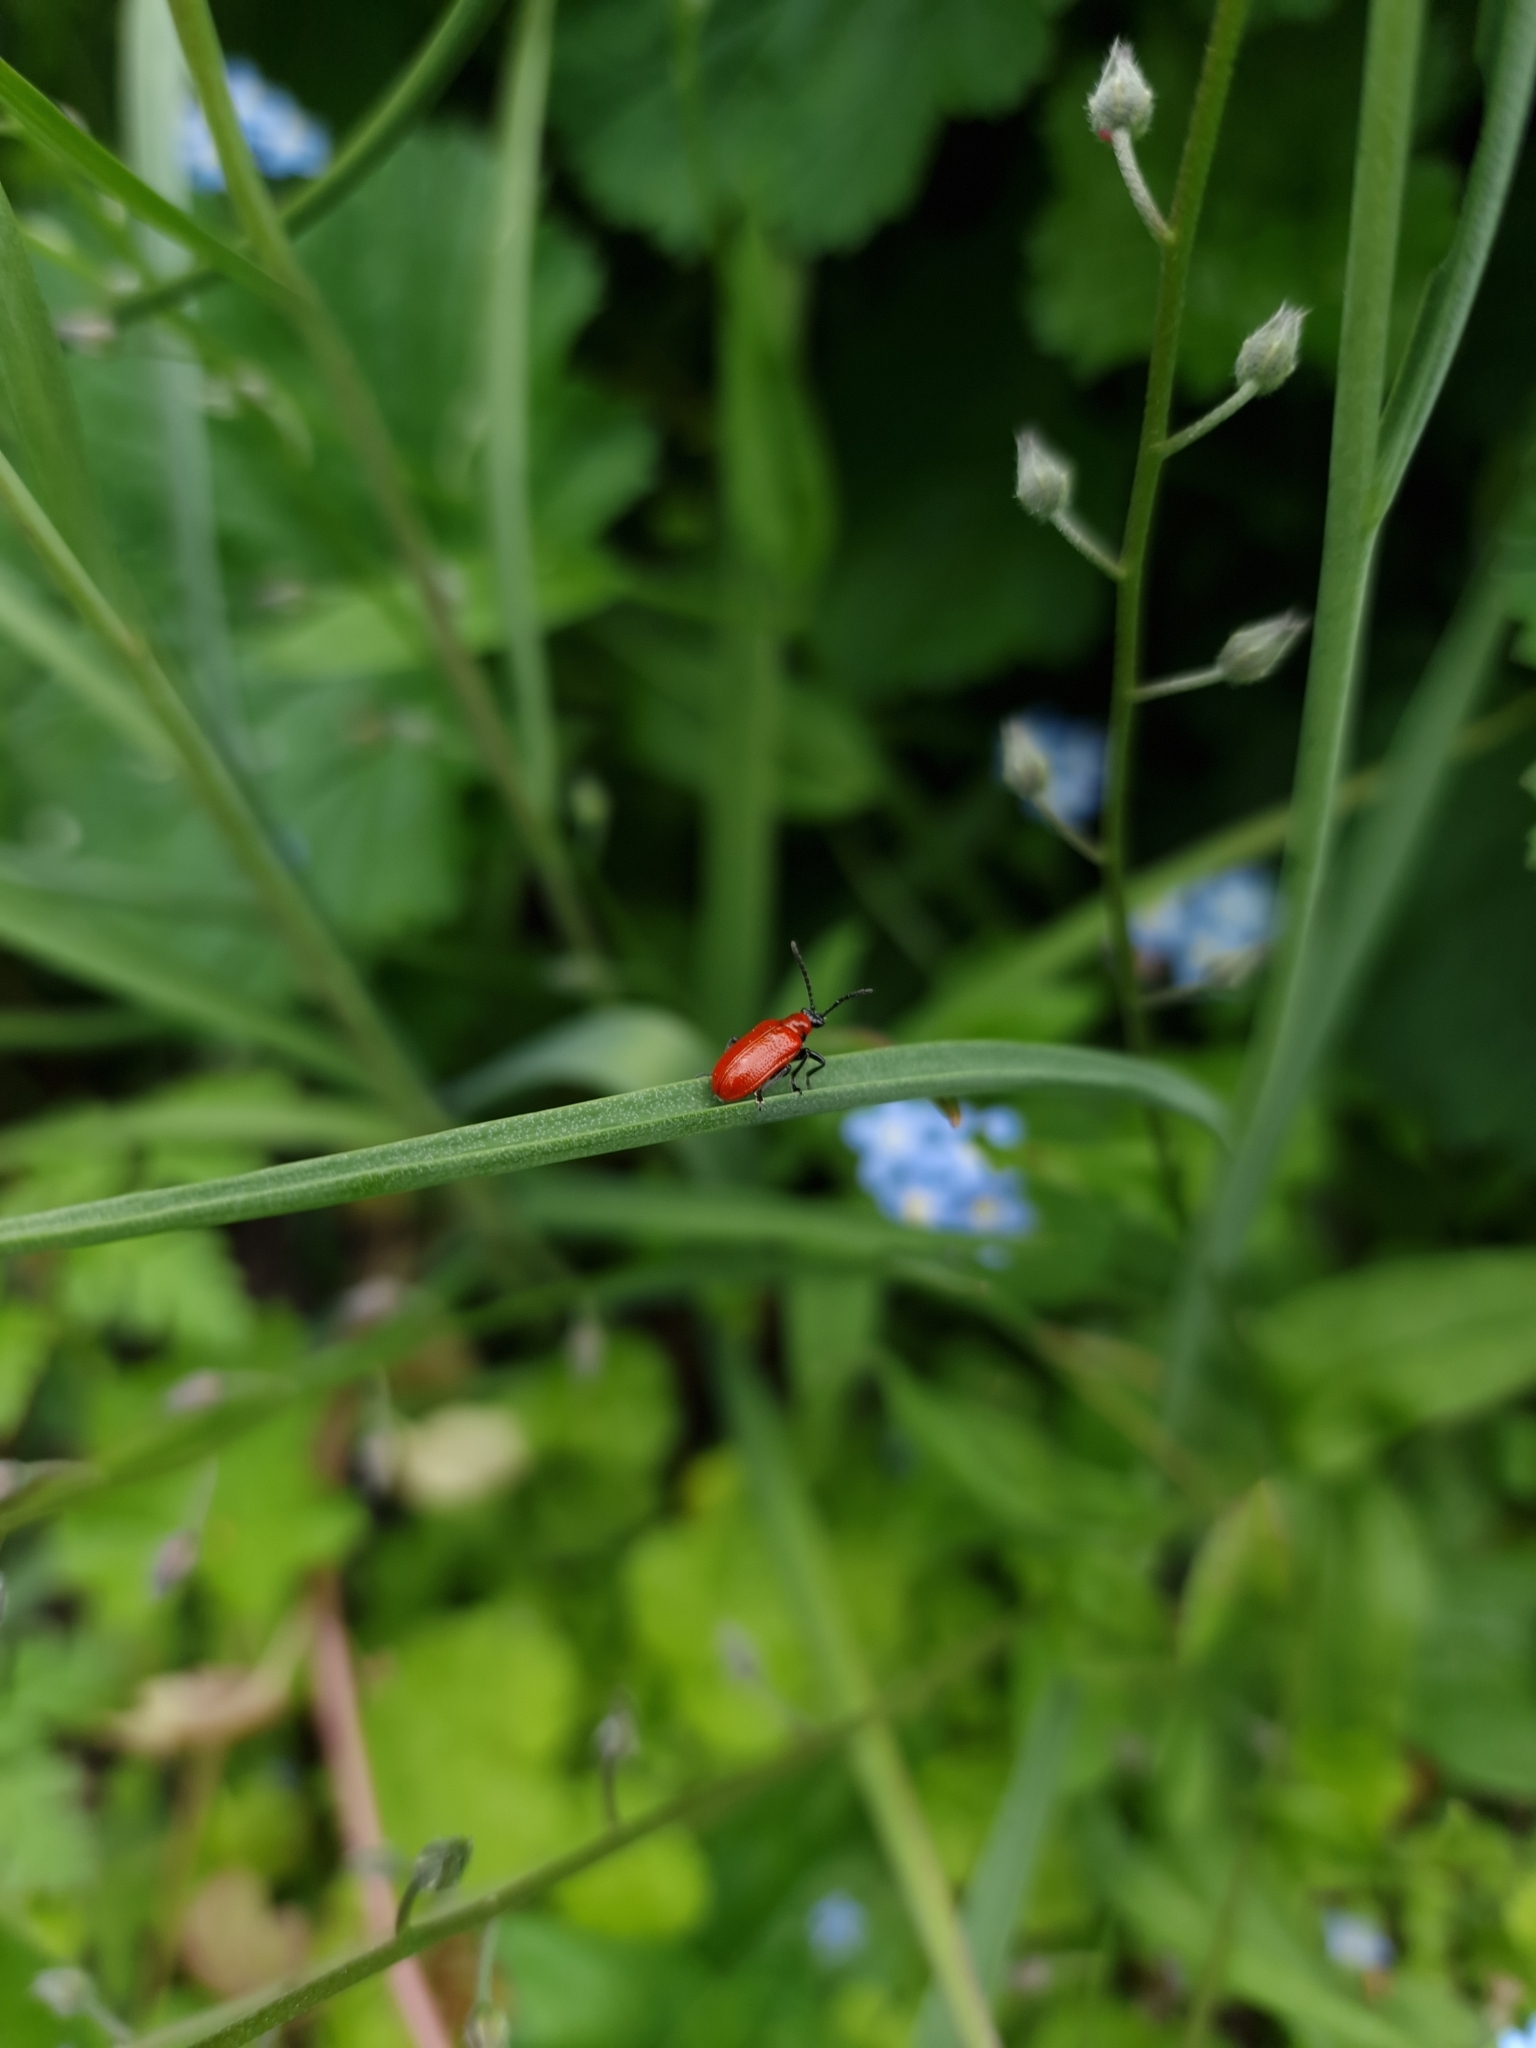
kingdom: Animalia
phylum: Arthropoda
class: Insecta
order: Coleoptera
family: Chrysomelidae
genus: Lilioceris
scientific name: Lilioceris lilii
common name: Lily beetle
